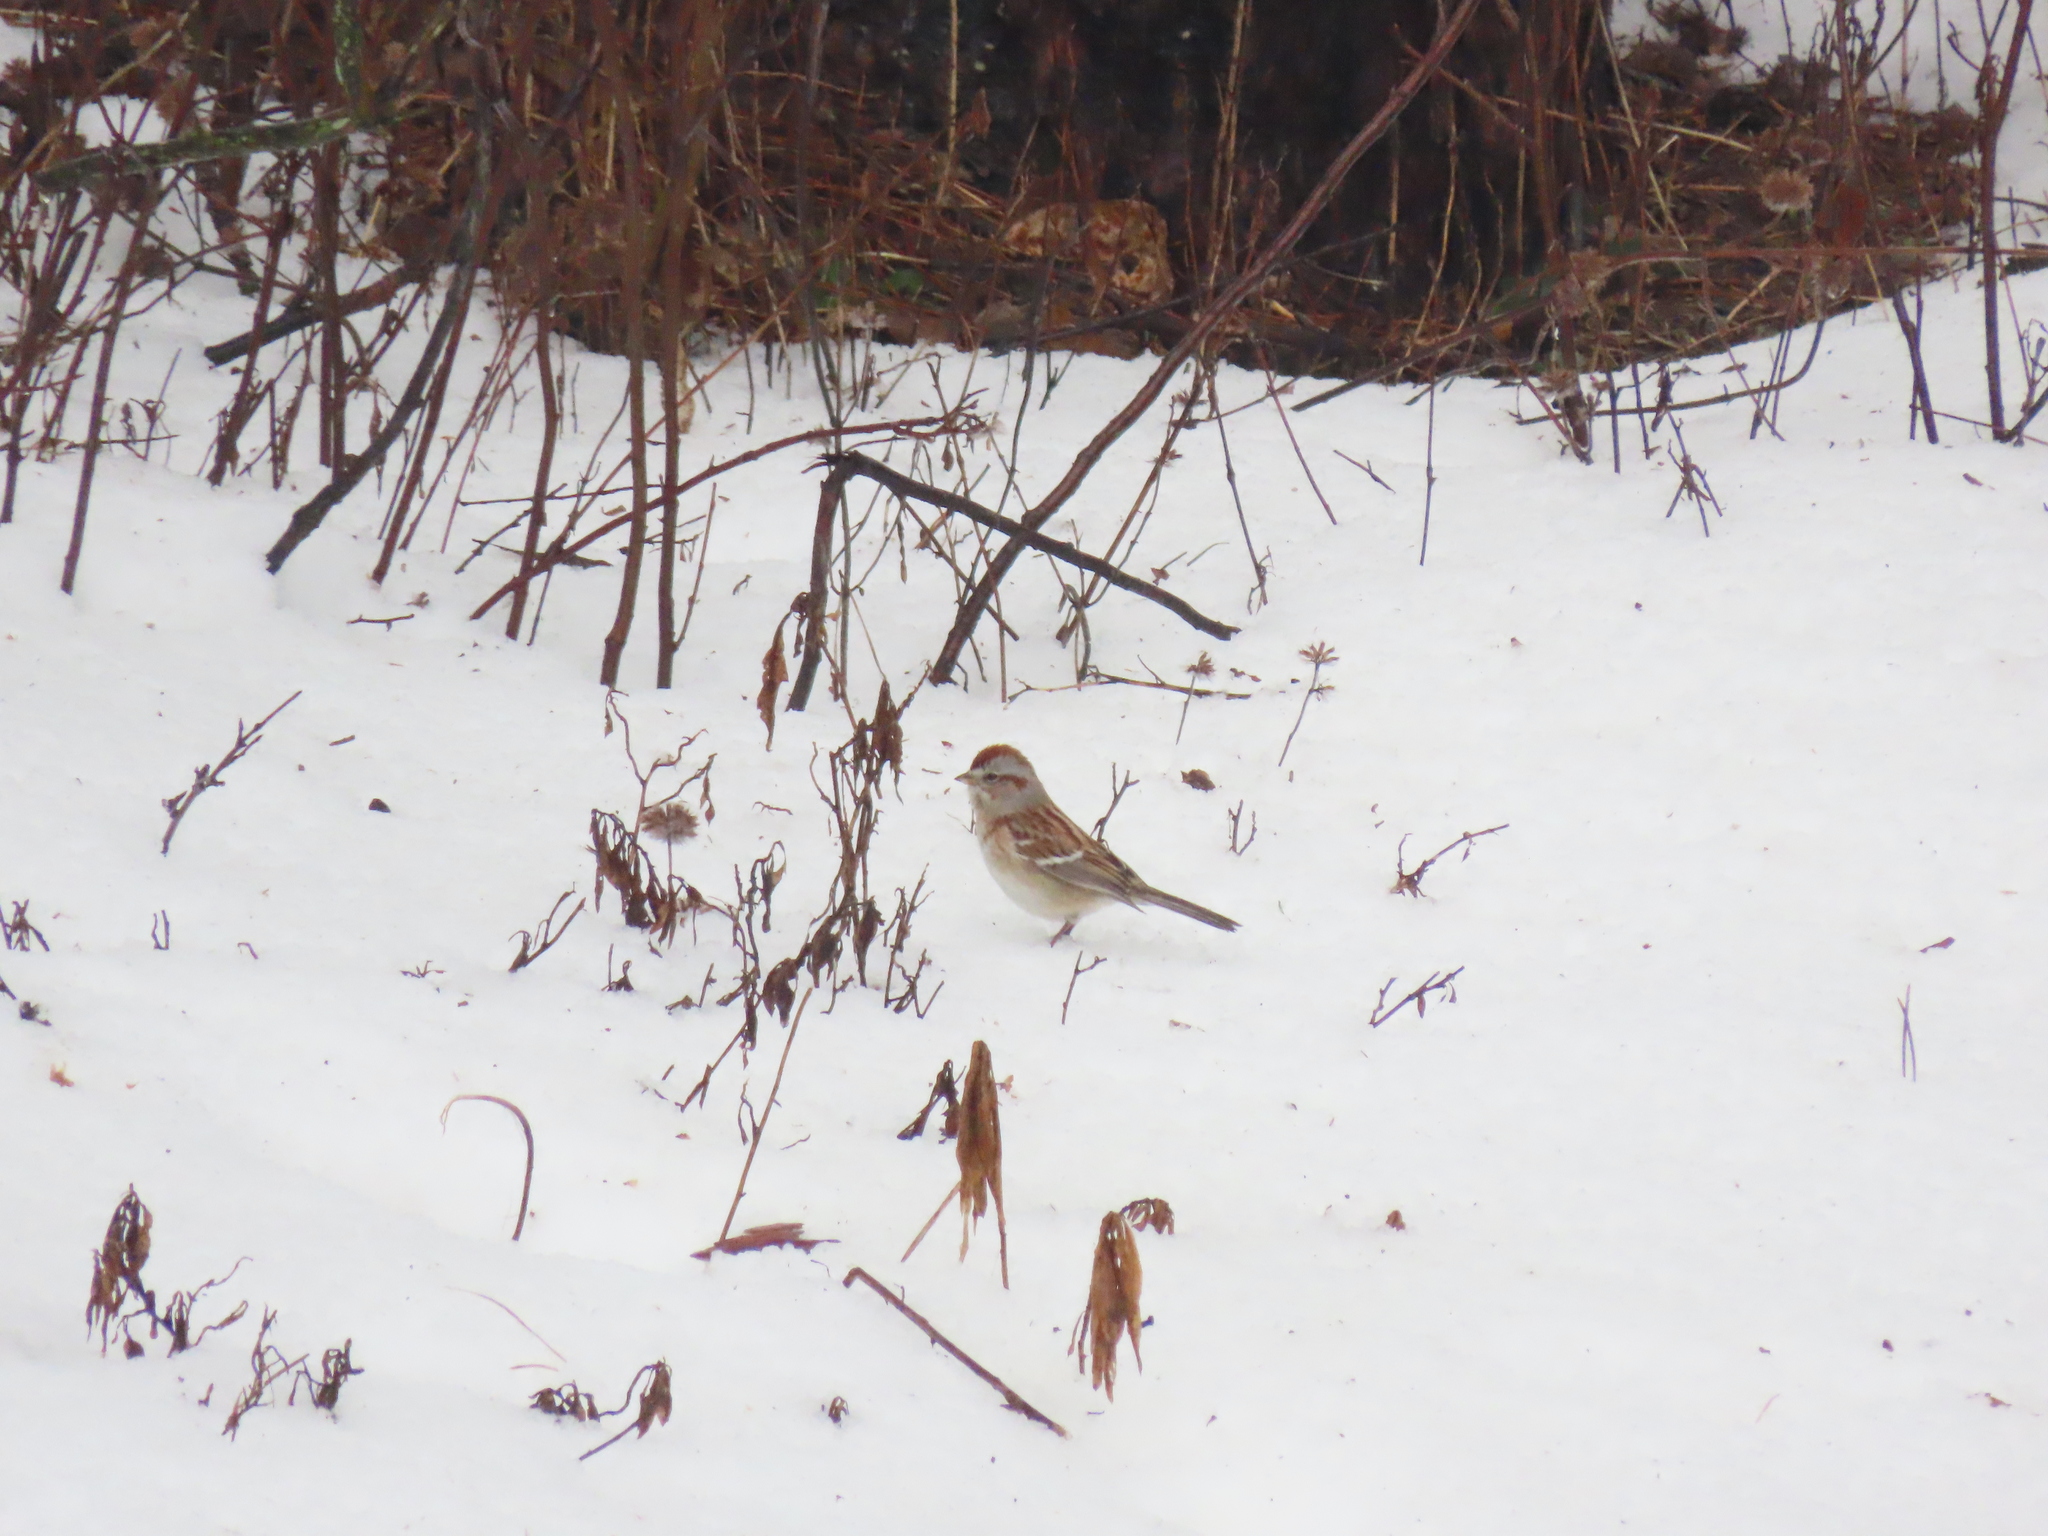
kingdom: Animalia
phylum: Chordata
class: Aves
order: Passeriformes
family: Passerellidae
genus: Spizelloides
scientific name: Spizelloides arborea
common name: American tree sparrow
